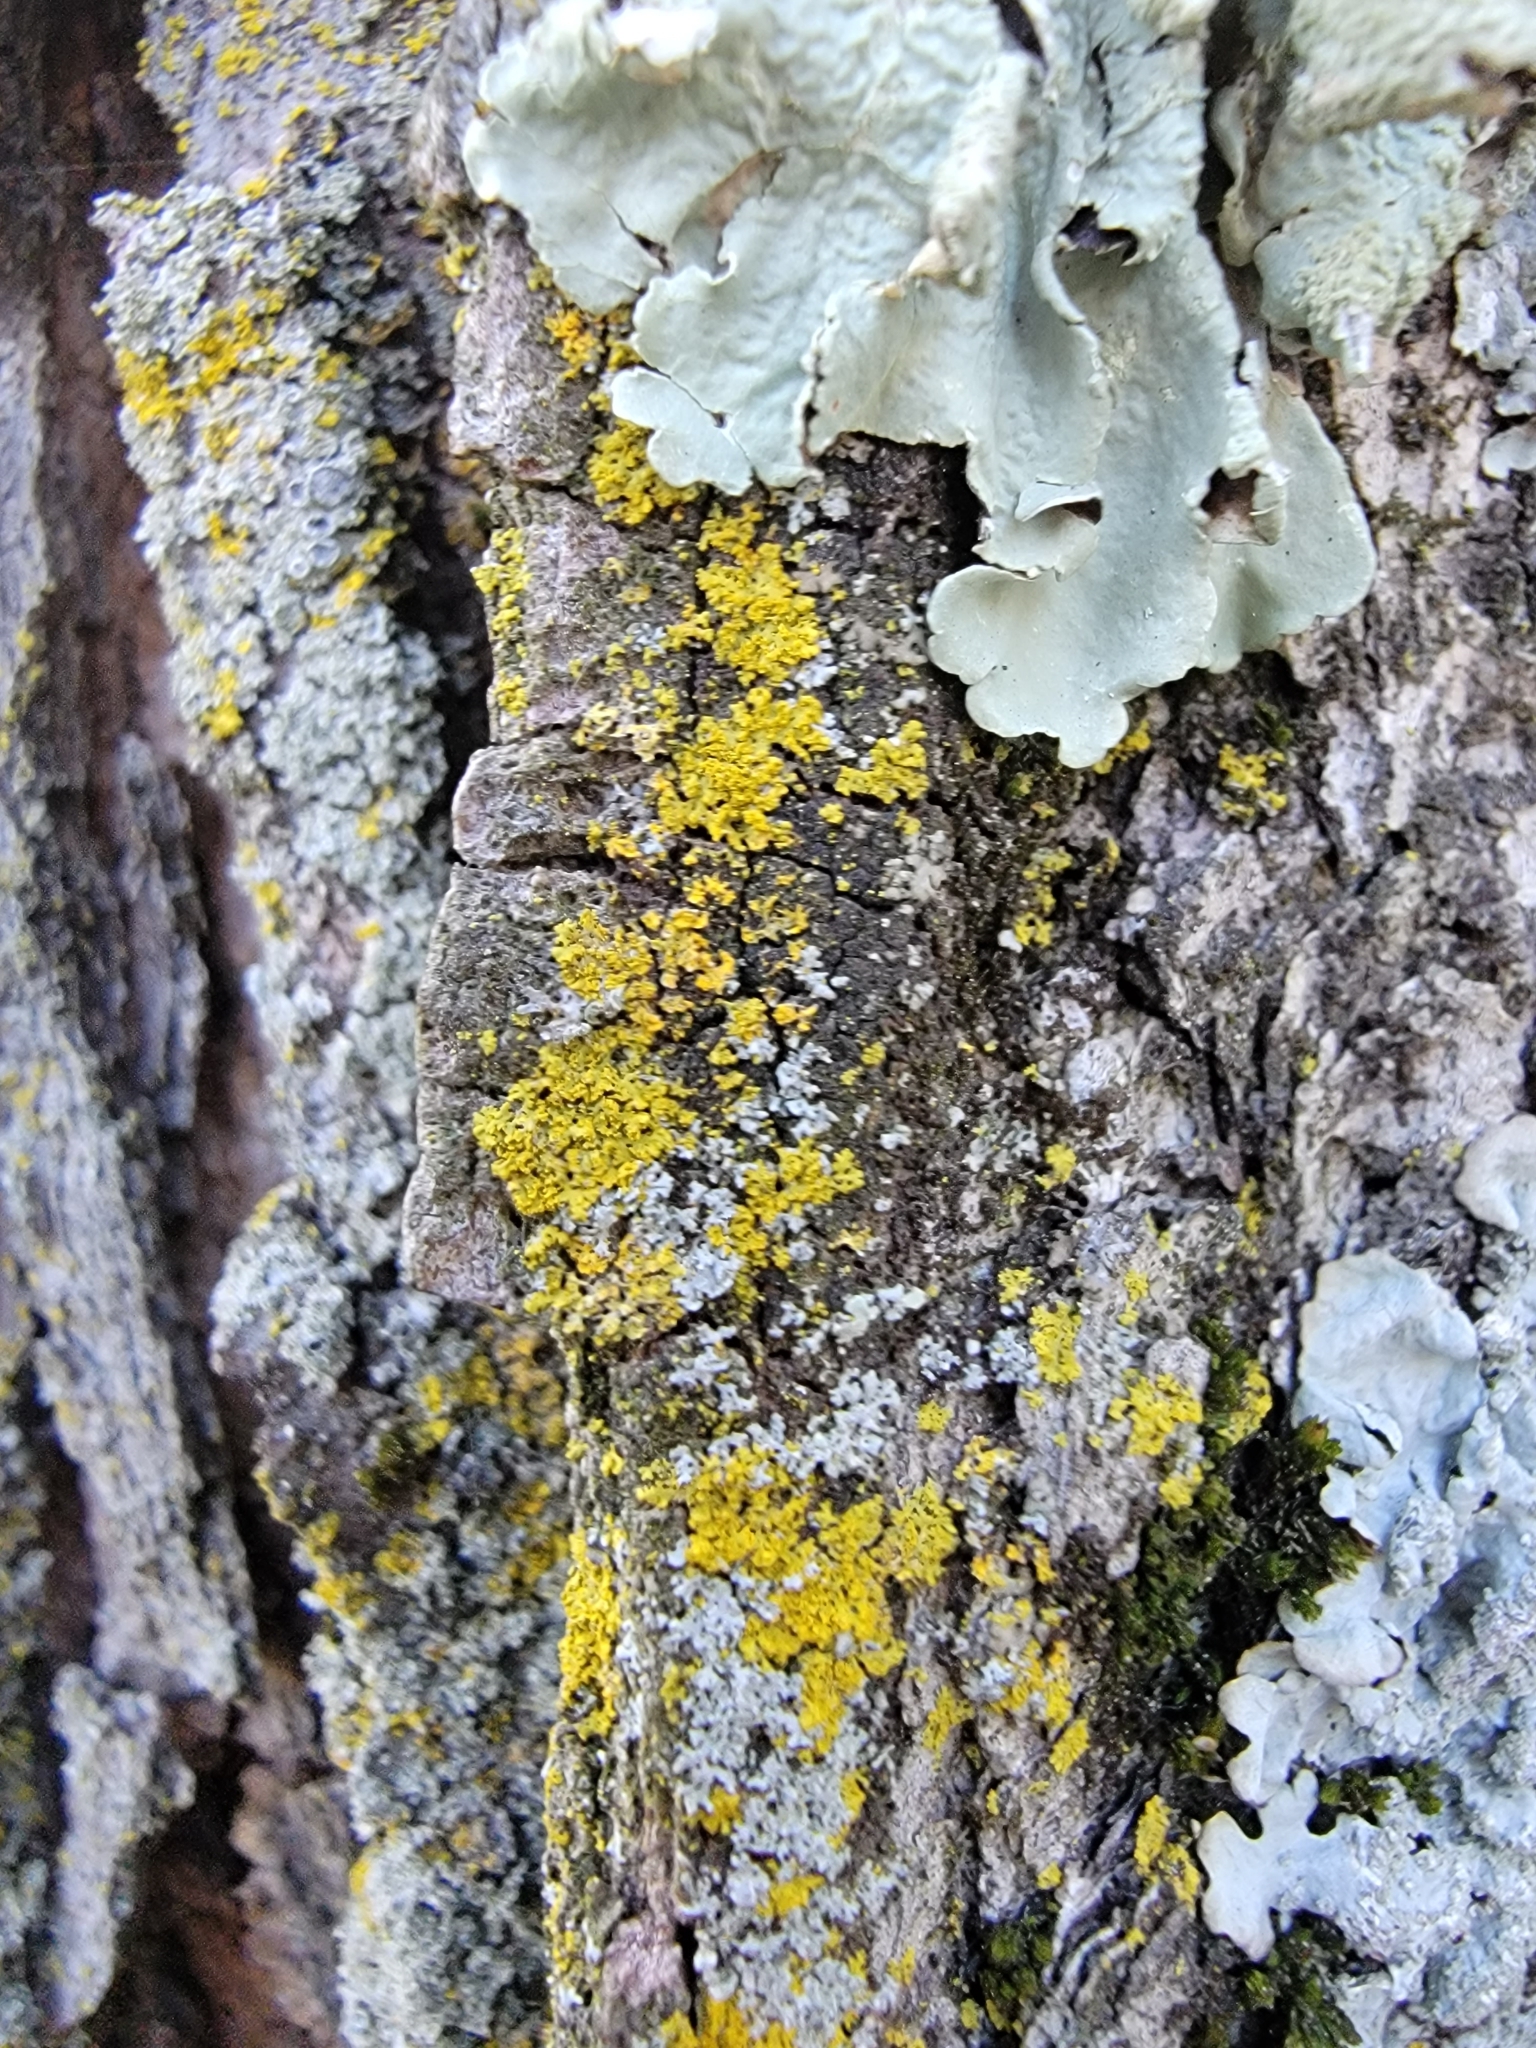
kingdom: Fungi
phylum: Ascomycota
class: Candelariomycetes
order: Candelariales
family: Candelariaceae
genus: Candelaria
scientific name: Candelaria concolor
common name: Candleflame lichen
